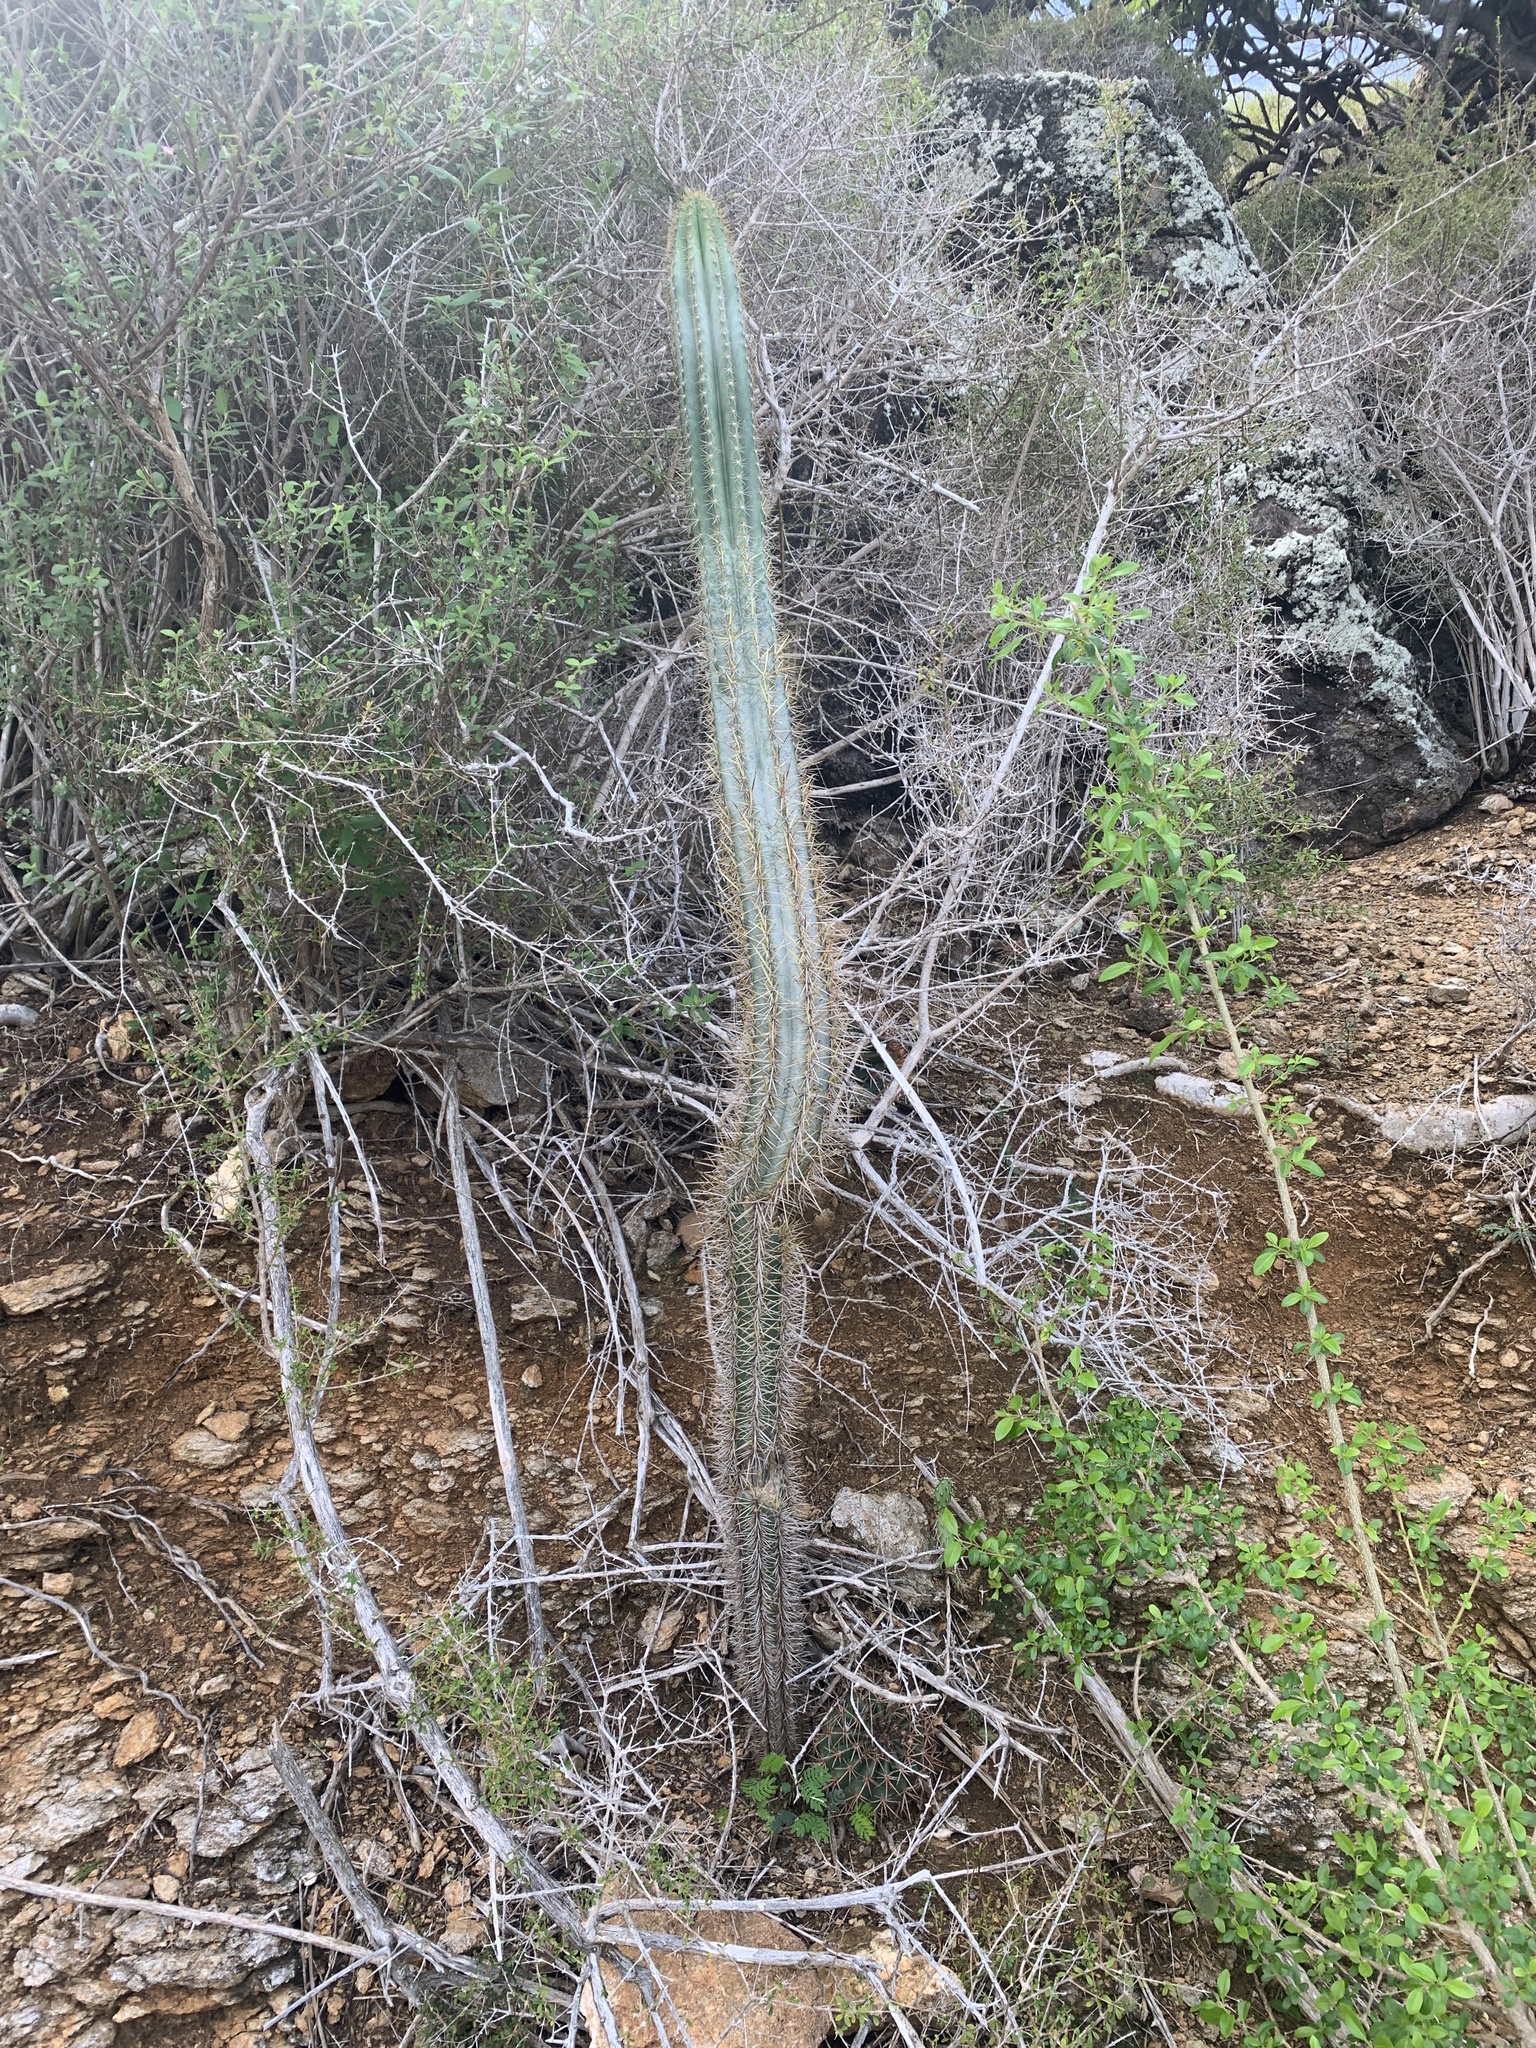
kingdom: Plantae
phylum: Tracheophyta
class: Magnoliopsida
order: Caryophyllales
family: Cactaceae
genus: Pilosocereus
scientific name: Pilosocereus curtisii
